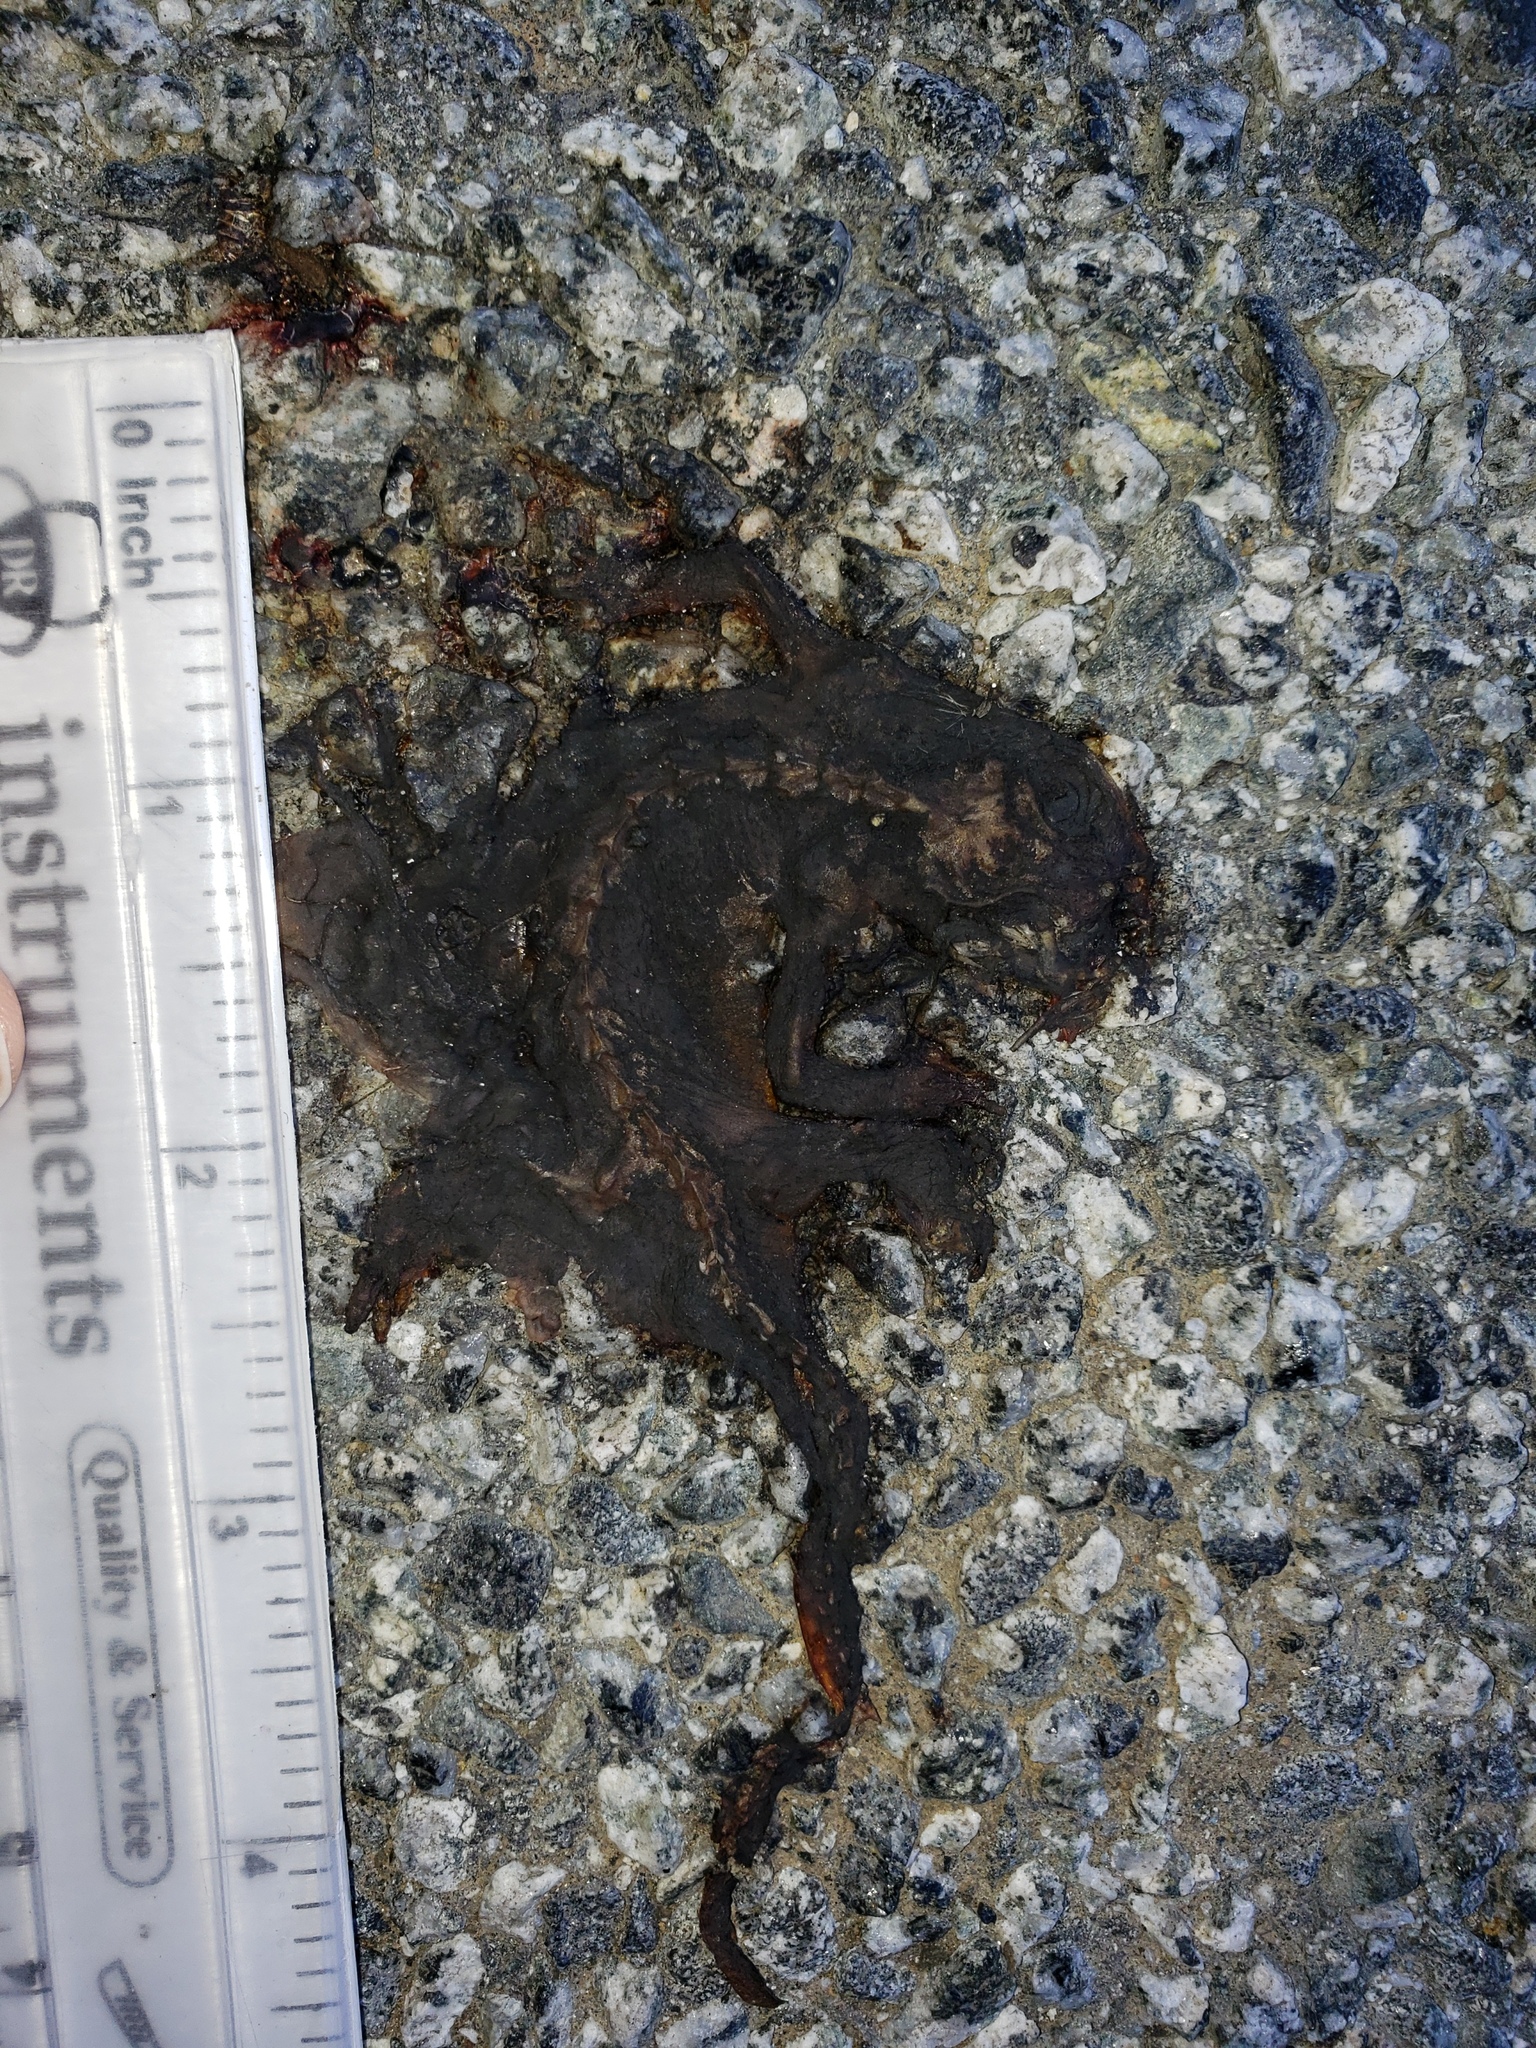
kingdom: Animalia
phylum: Chordata
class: Amphibia
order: Caudata
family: Salamandridae
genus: Taricha
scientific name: Taricha
